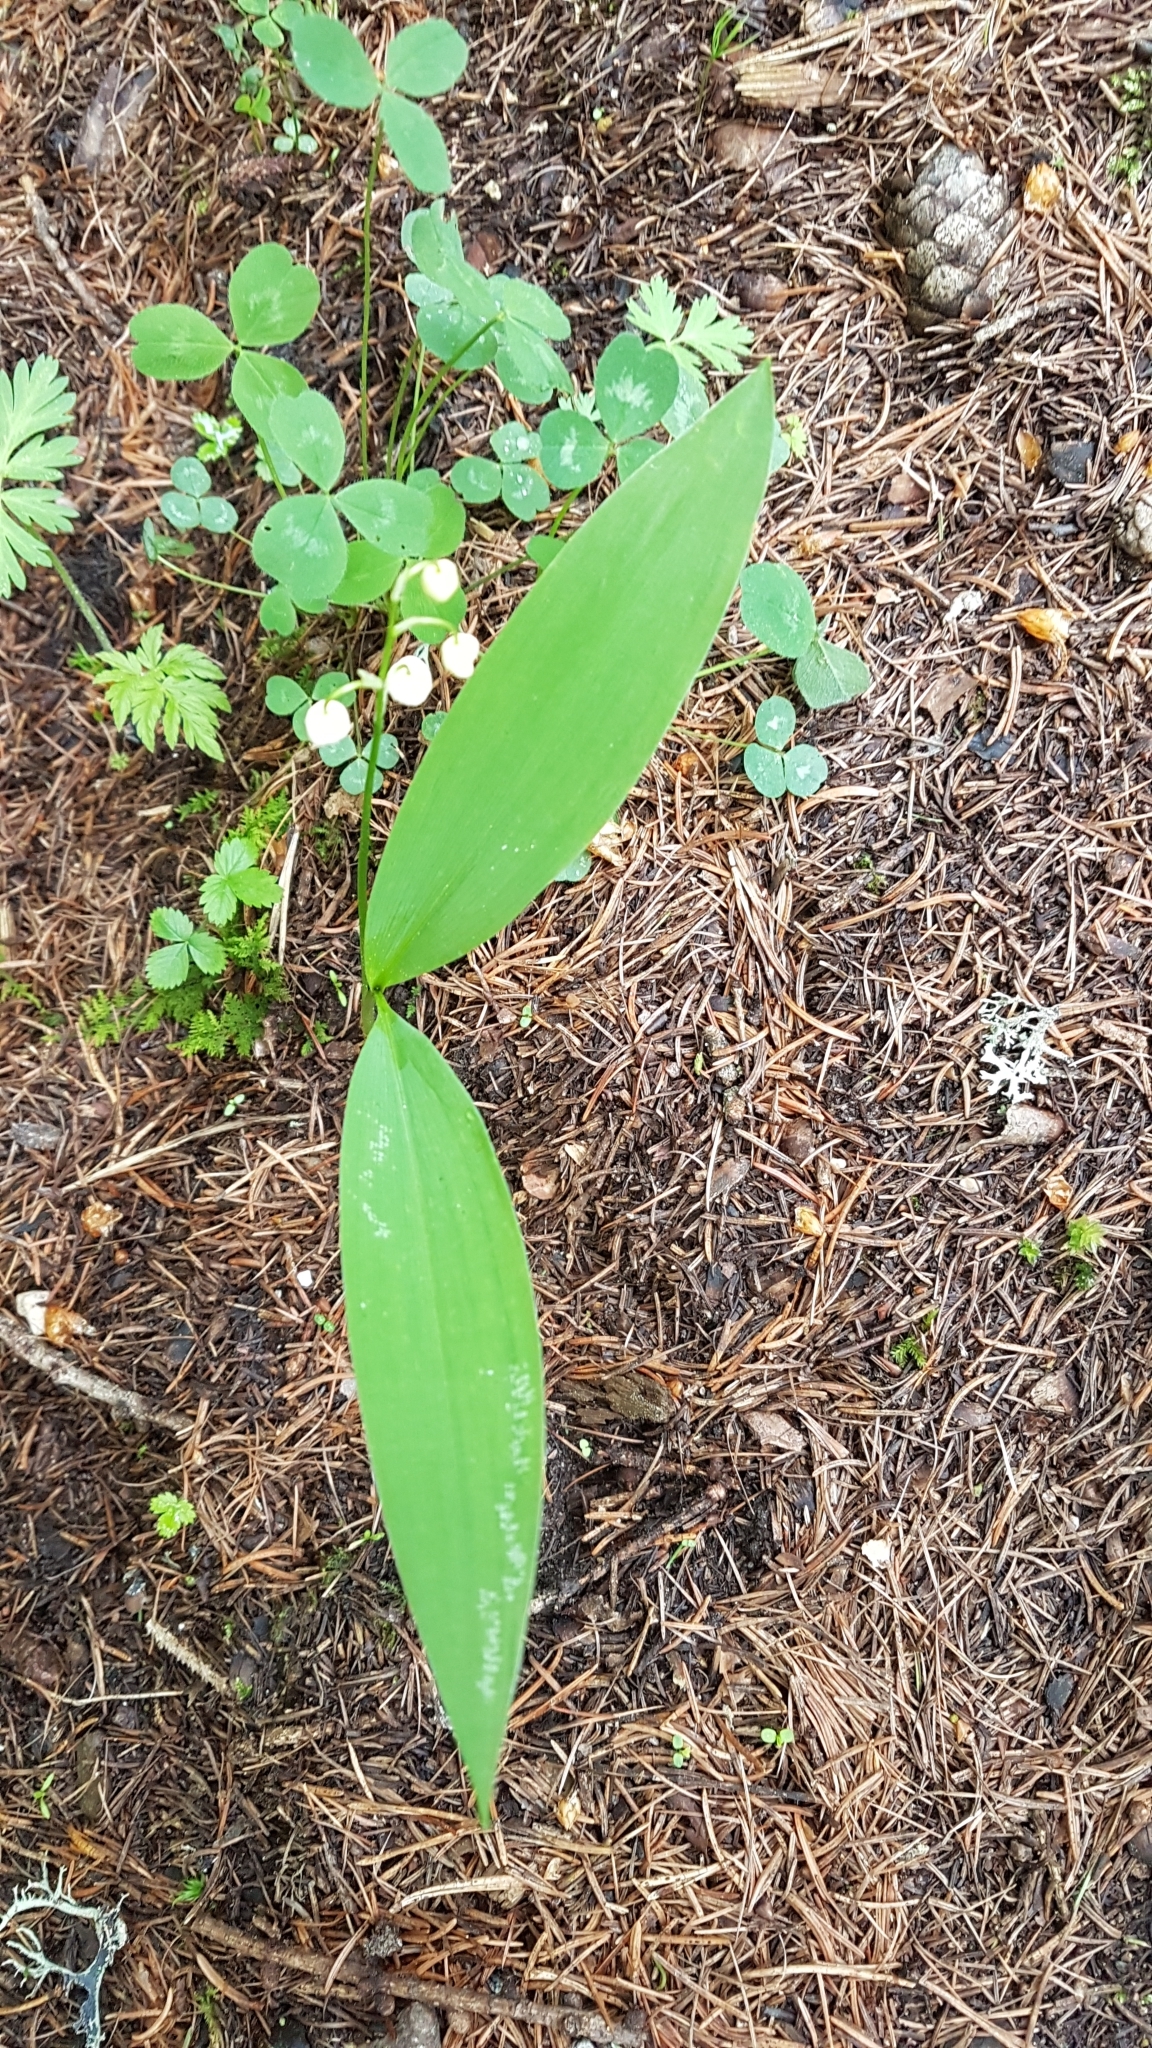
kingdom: Plantae
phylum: Tracheophyta
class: Liliopsida
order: Asparagales
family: Asparagaceae
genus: Convallaria
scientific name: Convallaria majalis
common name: Lily-of-the-valley
